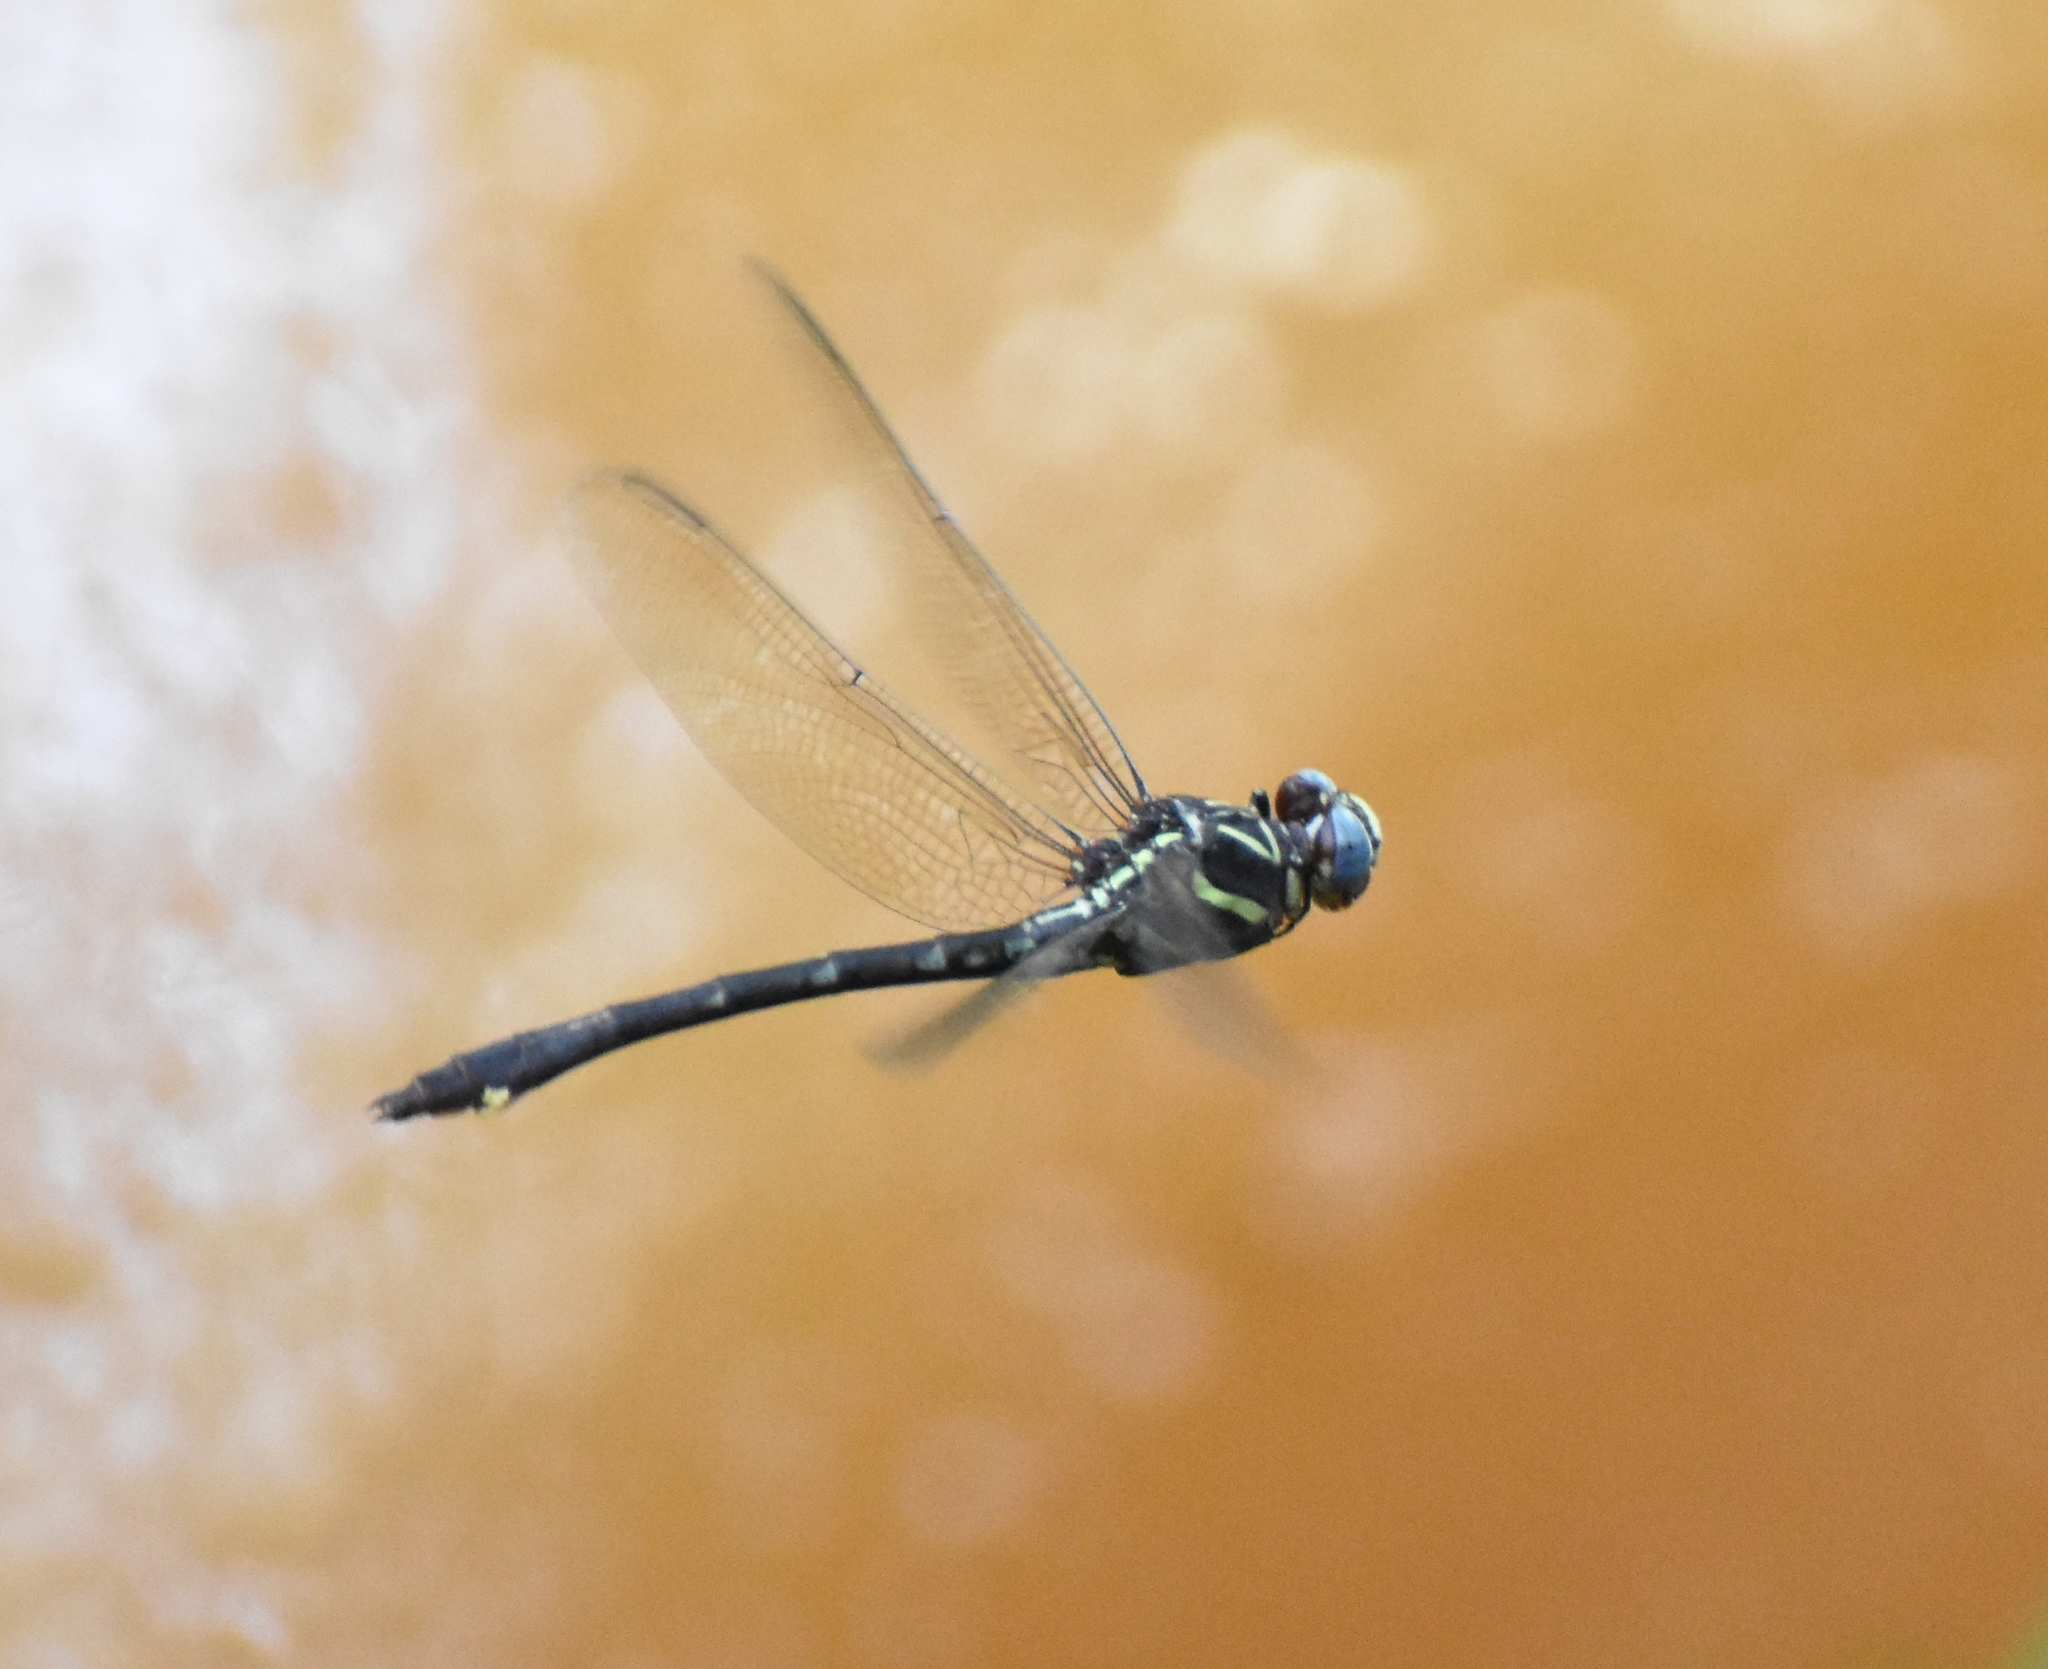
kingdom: Animalia
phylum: Arthropoda
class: Insecta
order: Odonata
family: Gomphidae
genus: Aphylla
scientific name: Aphylla williamsoni
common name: Two-striped forceptail
